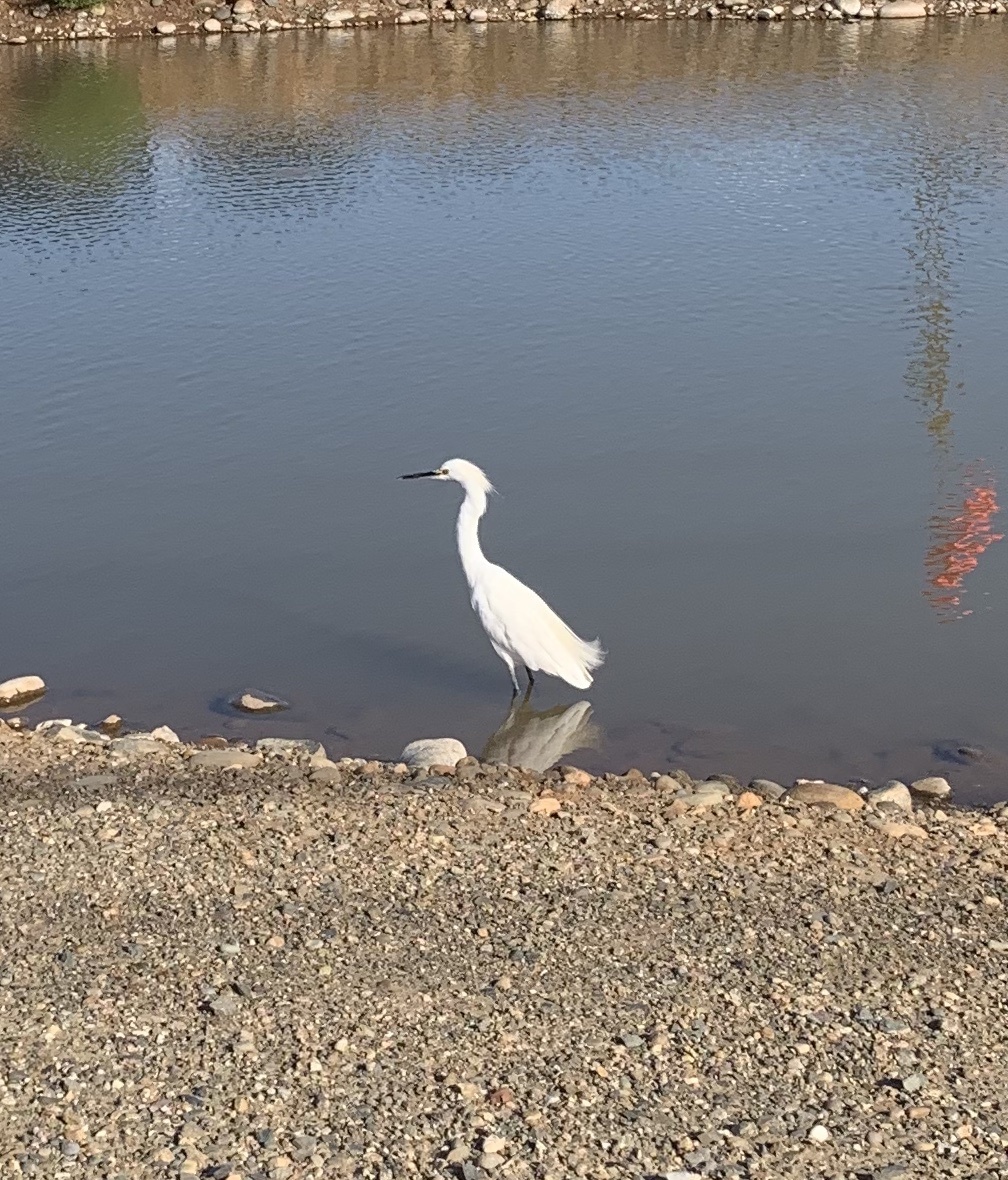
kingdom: Animalia
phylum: Chordata
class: Aves
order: Pelecaniformes
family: Ardeidae
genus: Egretta
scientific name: Egretta thula
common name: Snowy egret
